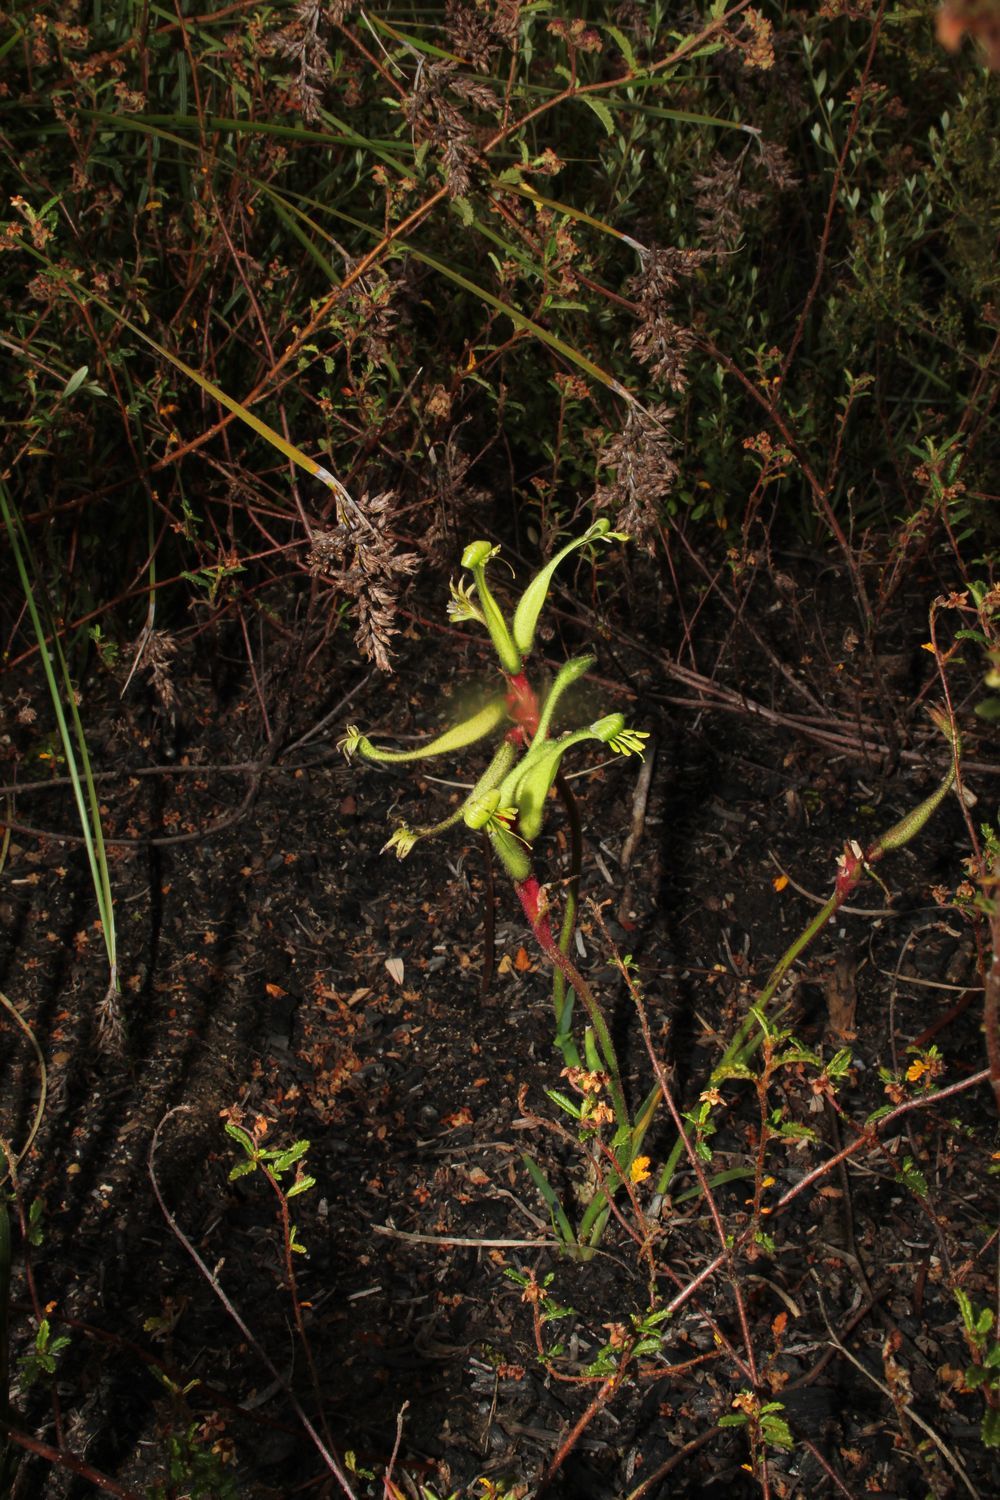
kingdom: Plantae
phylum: Tracheophyta
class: Liliopsida
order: Commelinales
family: Haemodoraceae
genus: Anigozanthos
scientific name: Anigozanthos bicolor
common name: Little kangaroo-paw
